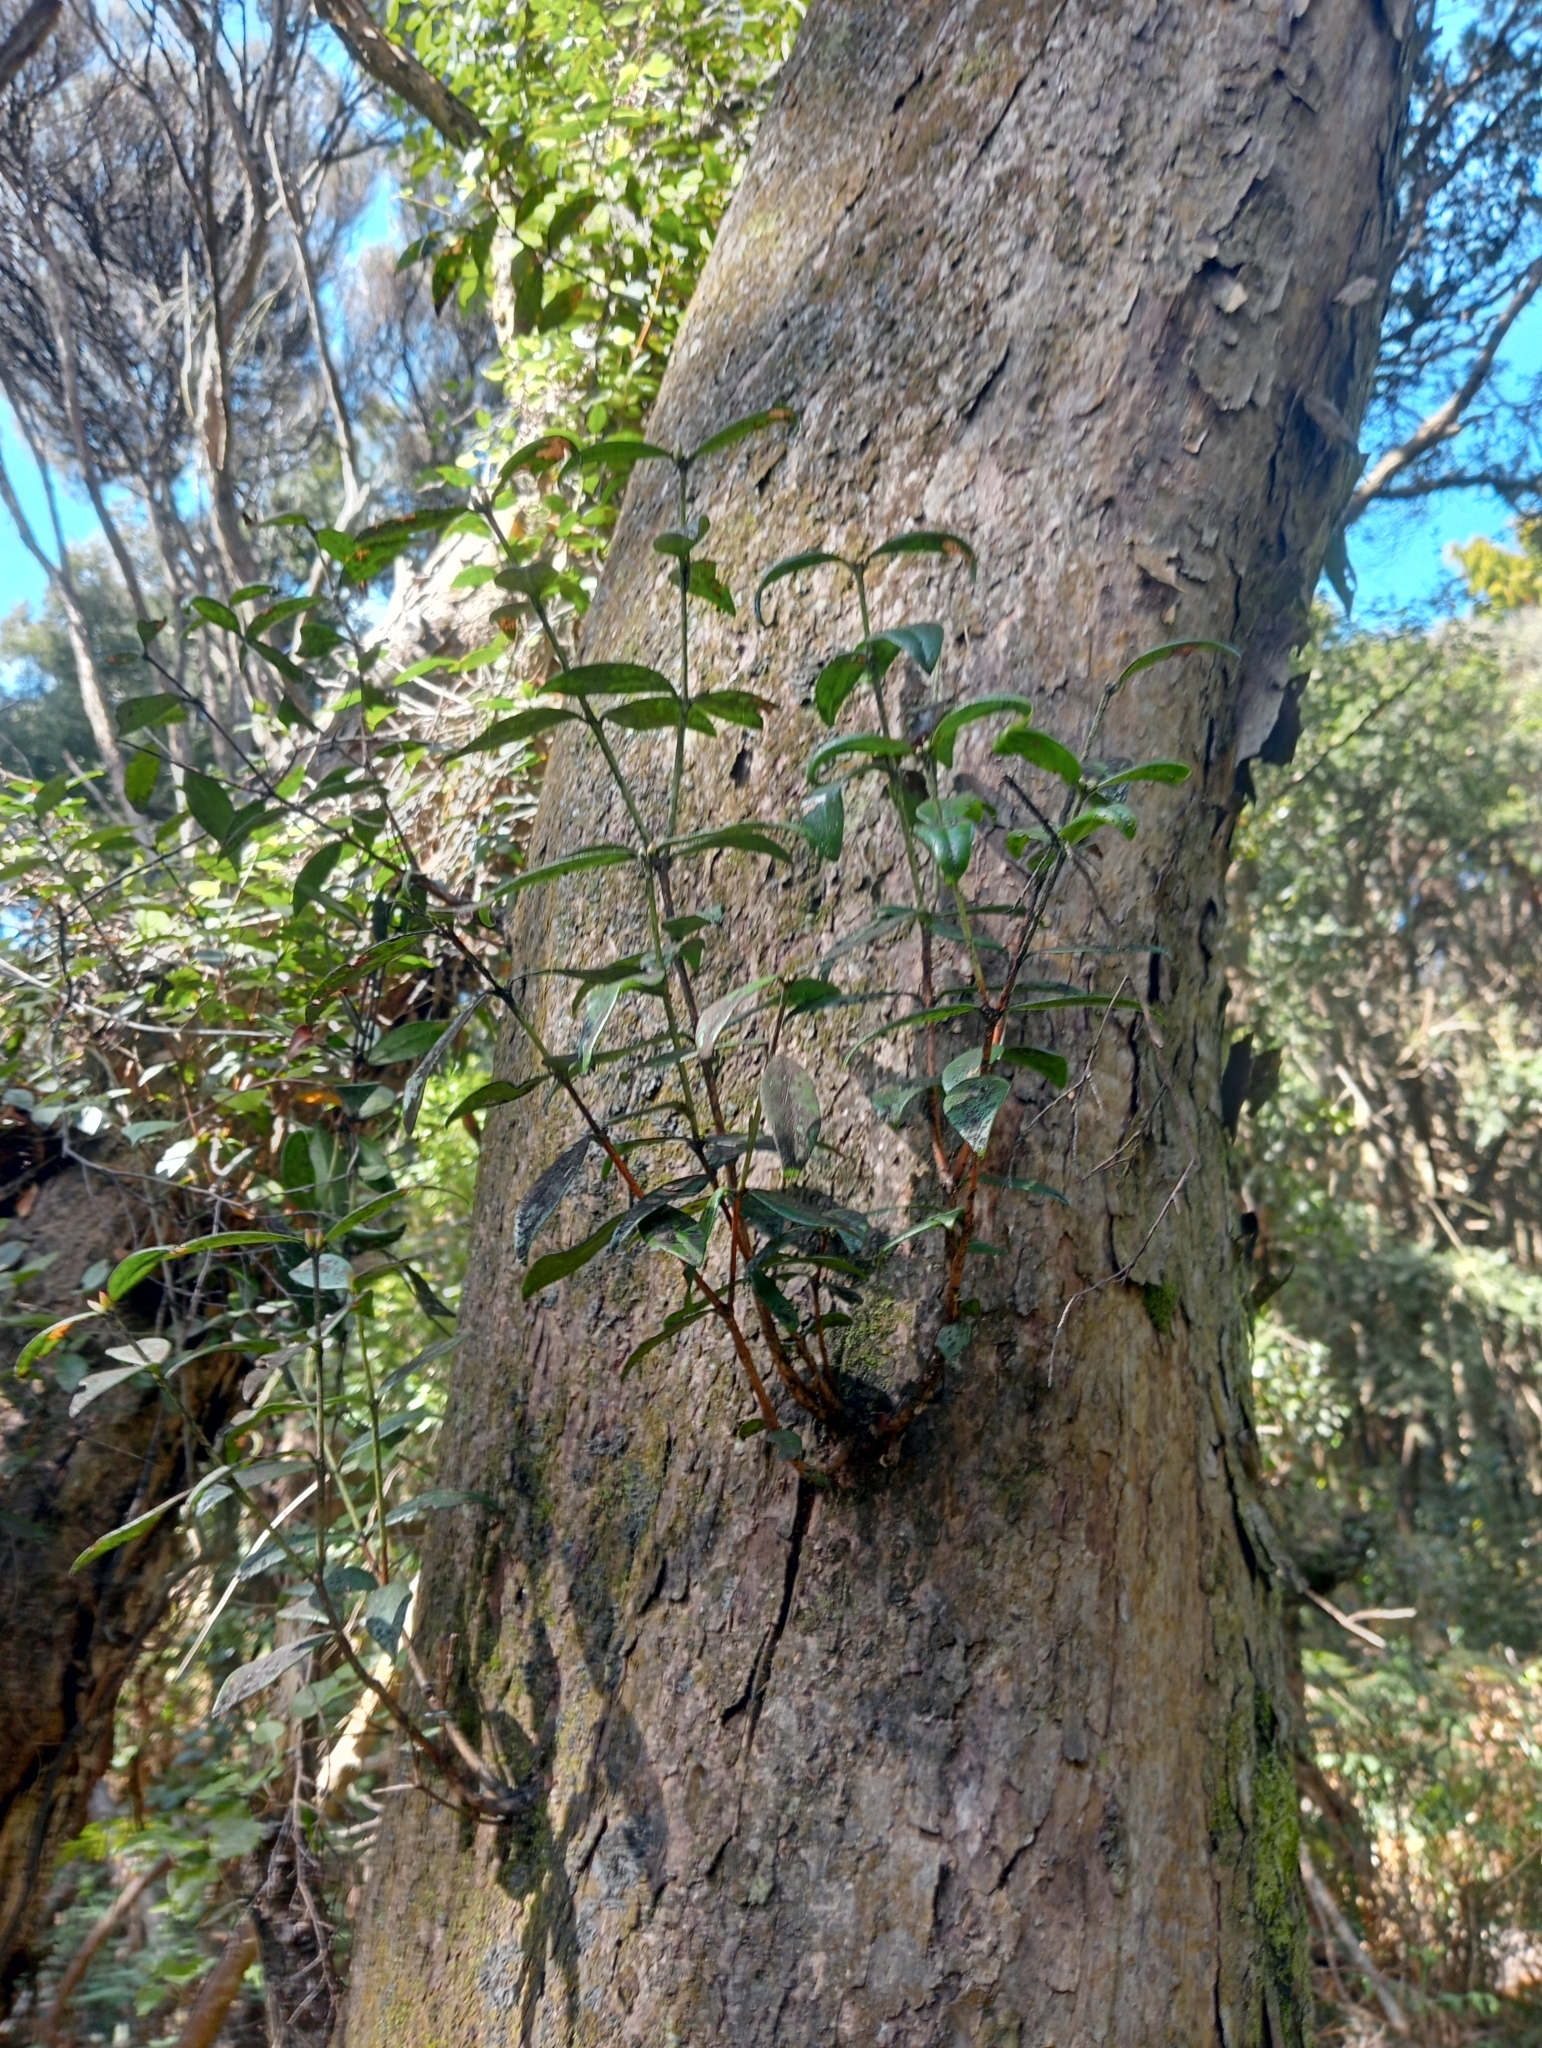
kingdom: Plantae
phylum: Tracheophyta
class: Magnoliopsida
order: Myrtales
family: Myrtaceae
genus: Metrosideros
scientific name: Metrosideros umbellata
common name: Southern rata
